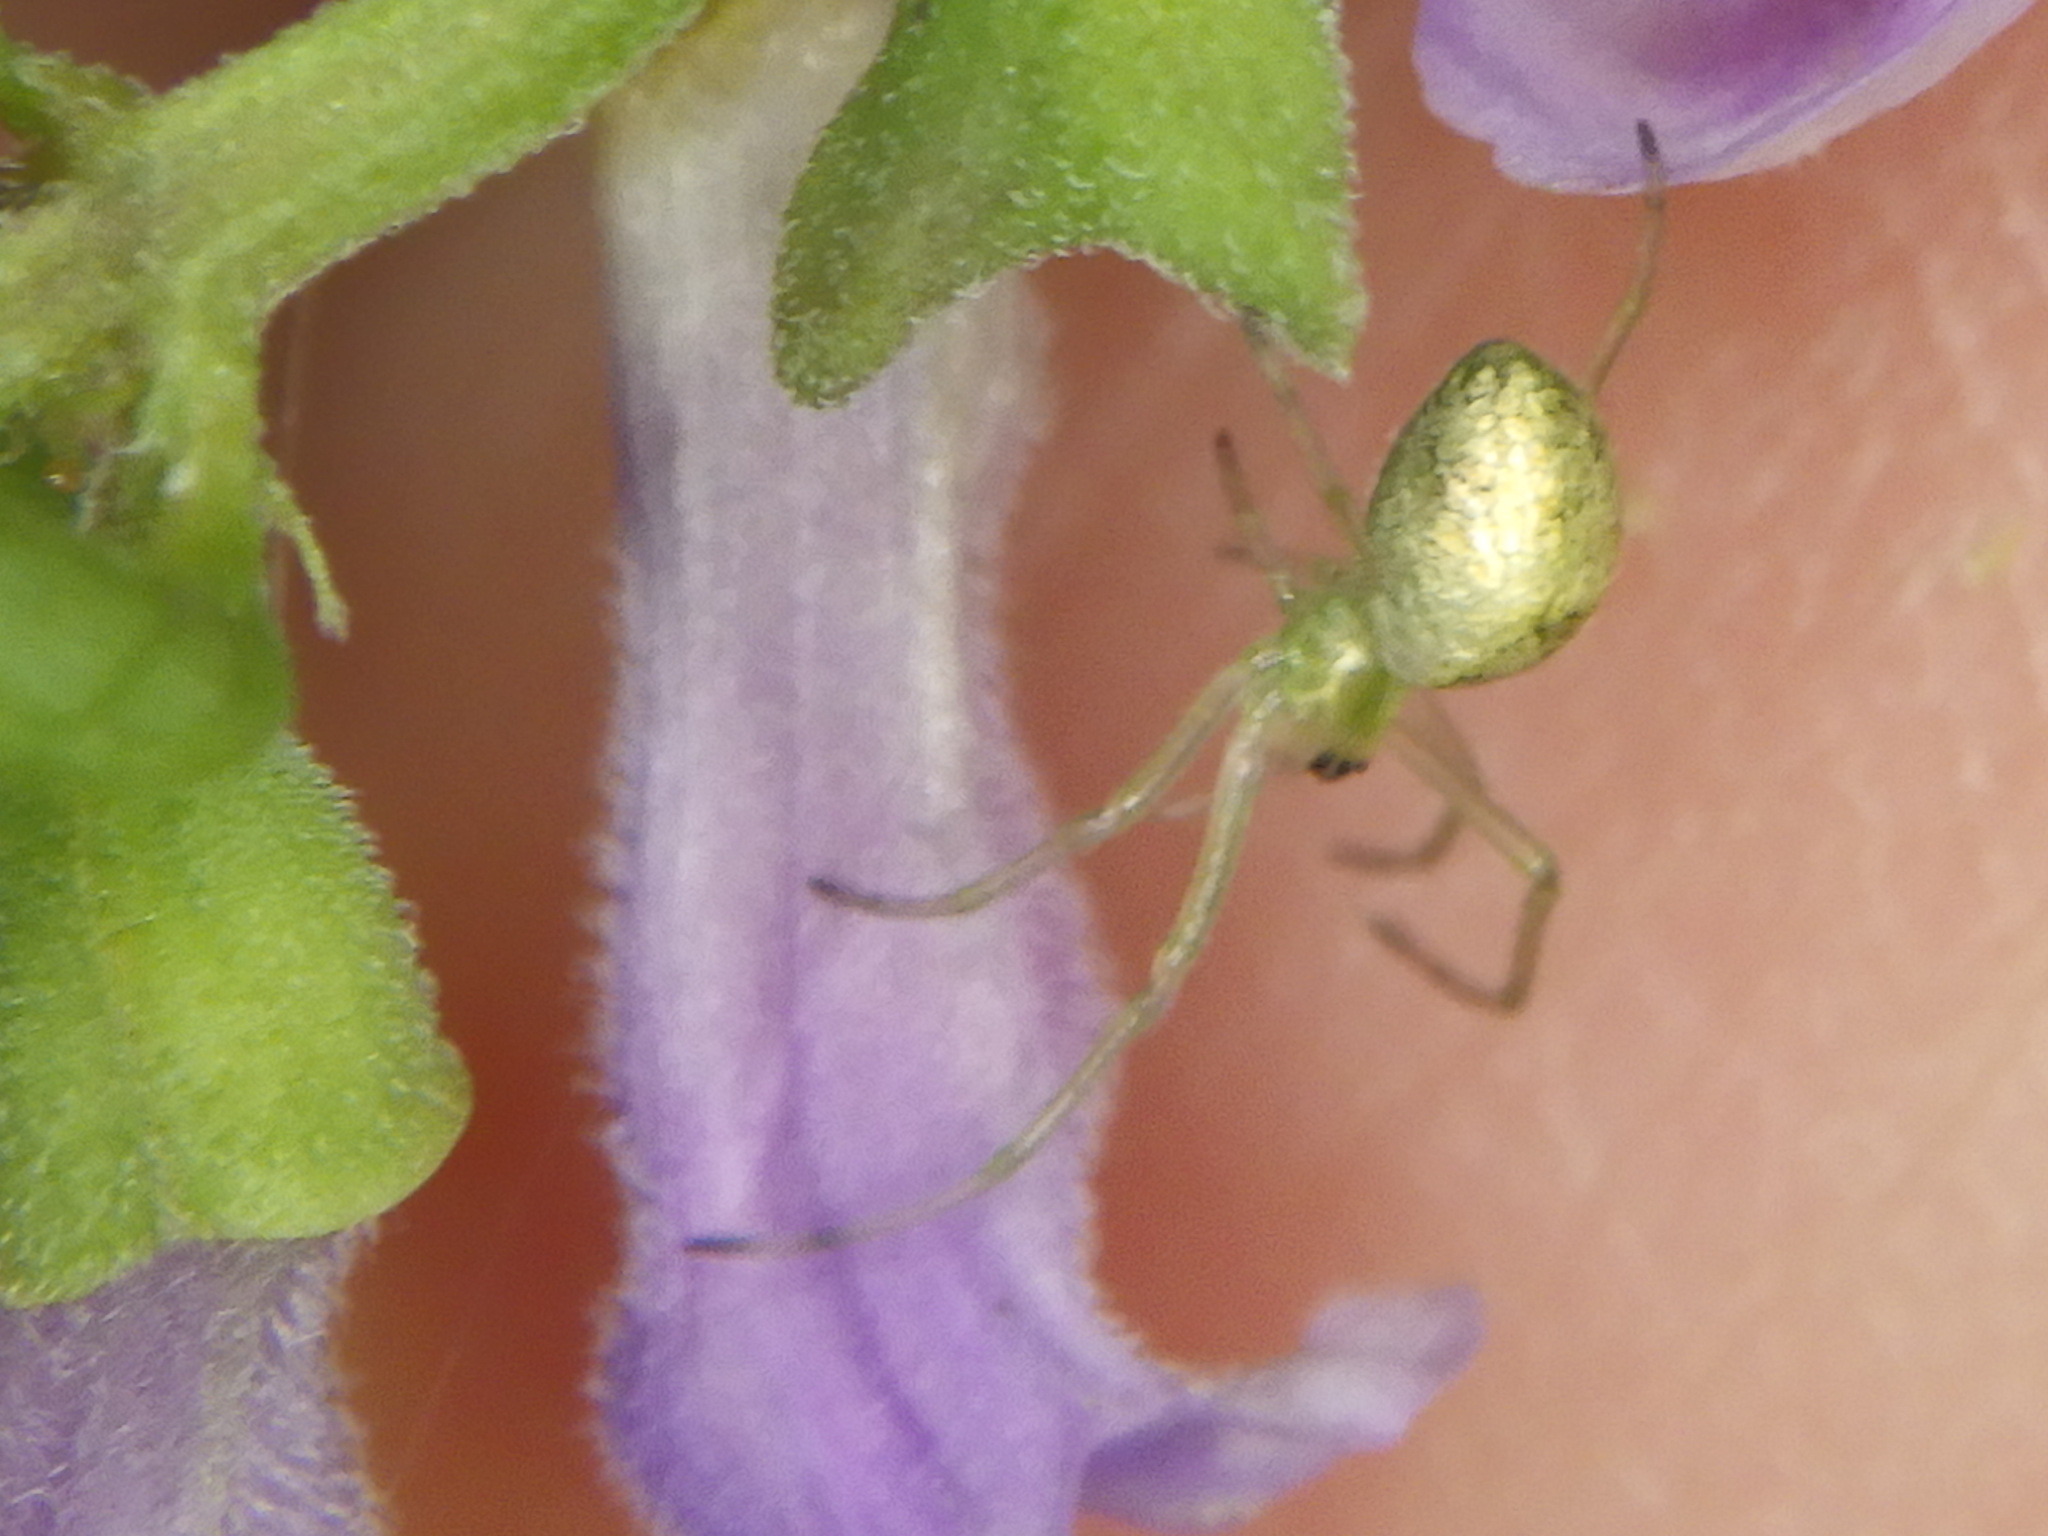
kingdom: Animalia
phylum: Arthropoda
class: Arachnida
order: Araneae
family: Tetragnathidae
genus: Tetragnatha
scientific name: Tetragnatha
